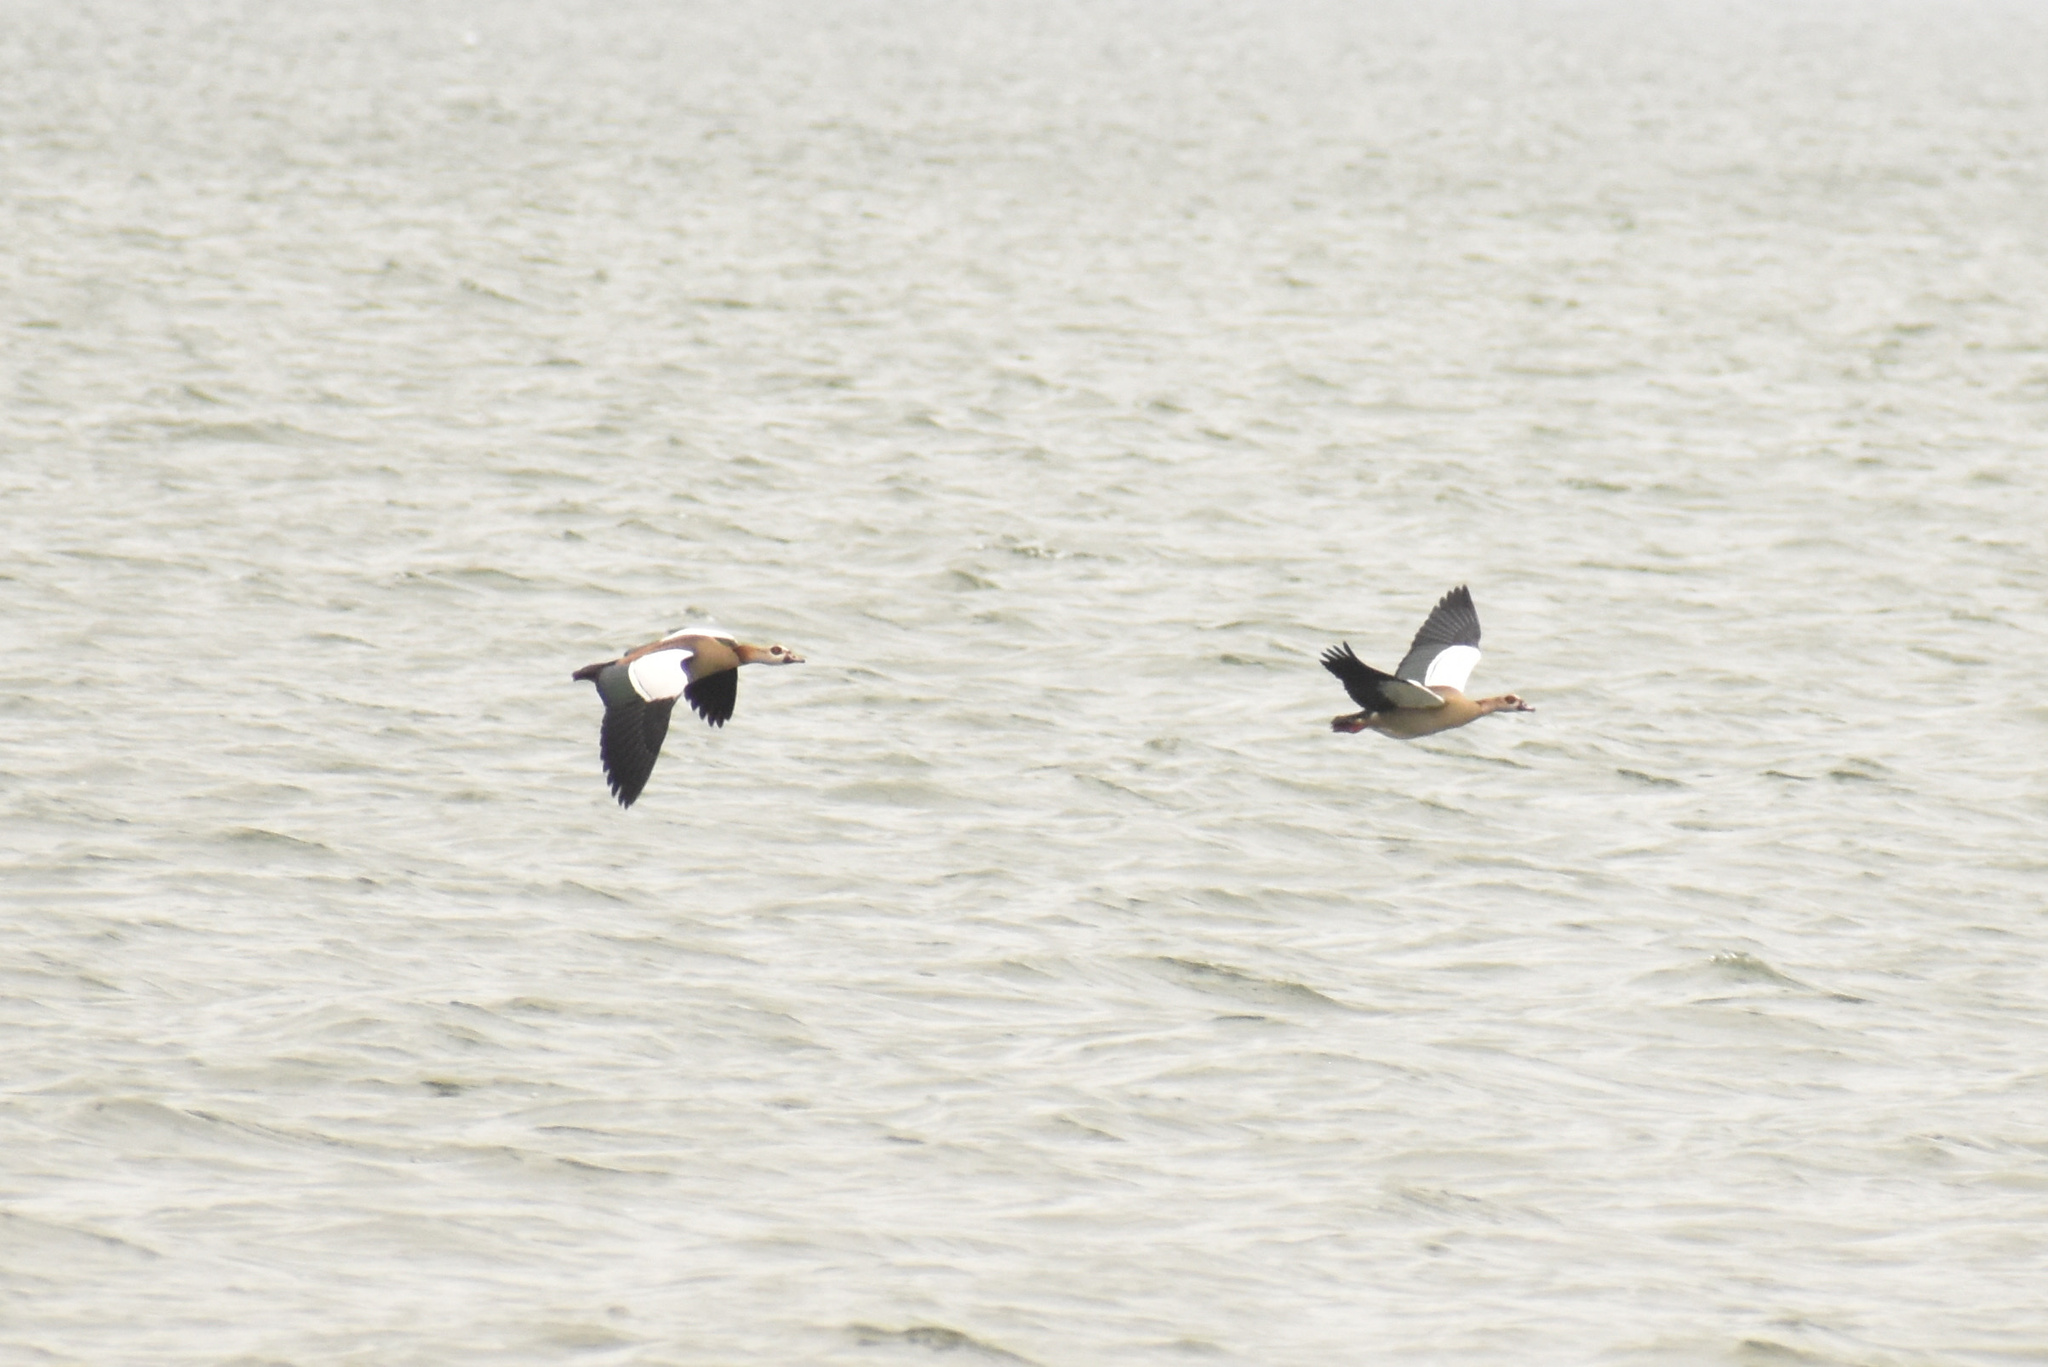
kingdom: Animalia
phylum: Chordata
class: Aves
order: Anseriformes
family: Anatidae
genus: Alopochen
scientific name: Alopochen aegyptiaca
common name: Egyptian goose
